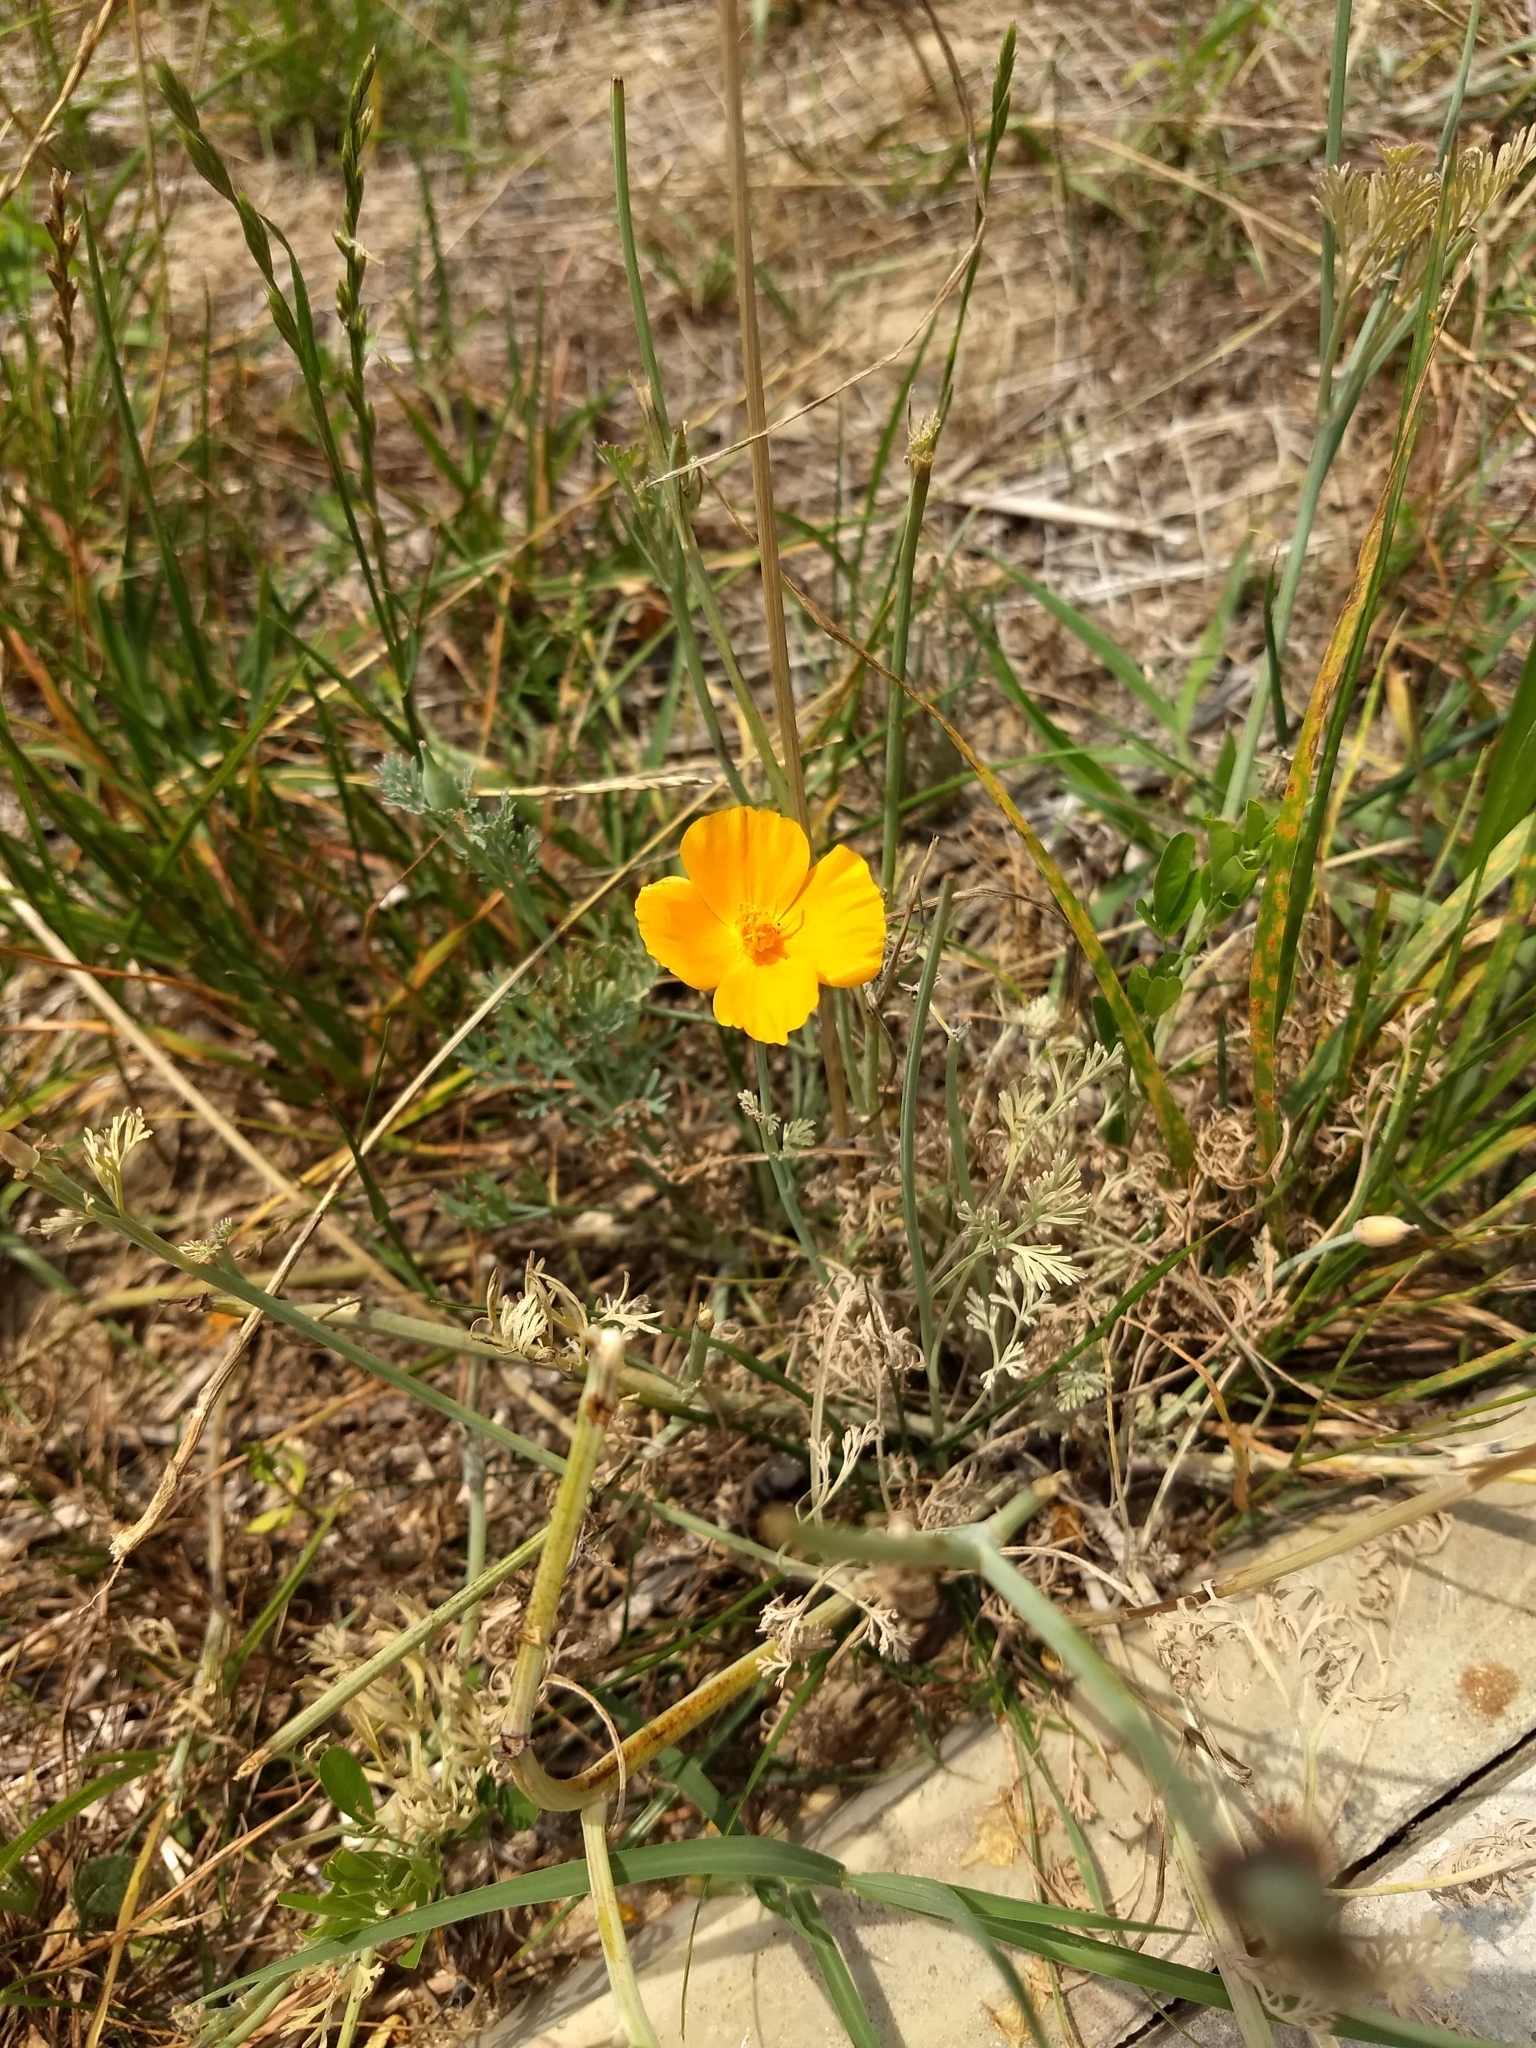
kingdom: Plantae
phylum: Tracheophyta
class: Magnoliopsida
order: Ranunculales
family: Papaveraceae
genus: Eschscholzia
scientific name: Eschscholzia californica
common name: California poppy
